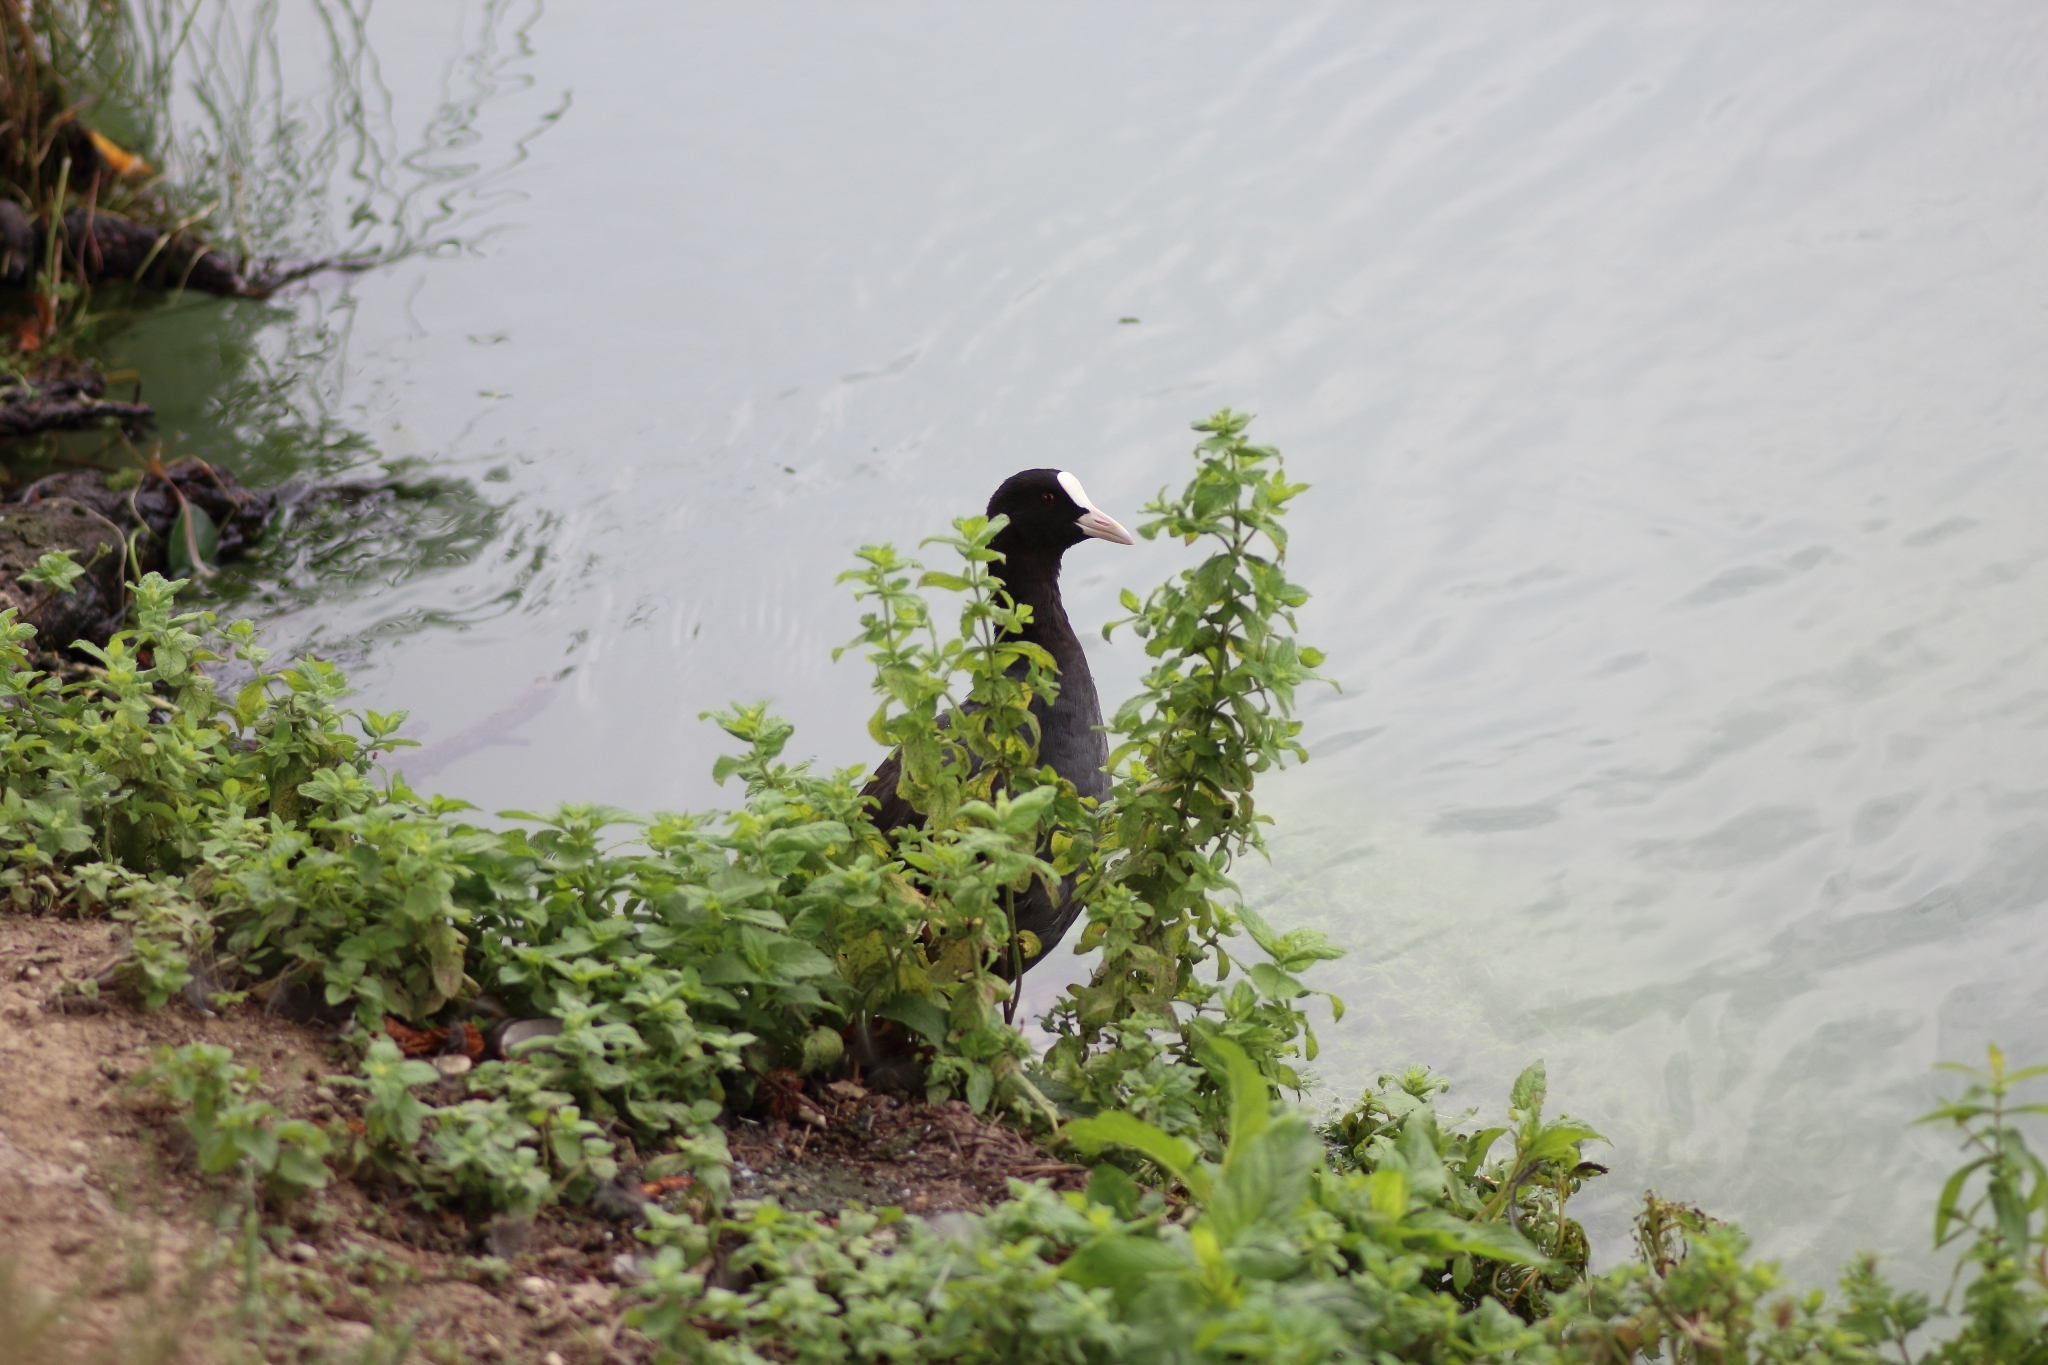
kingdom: Animalia
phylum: Chordata
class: Aves
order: Gruiformes
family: Rallidae
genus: Fulica
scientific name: Fulica atra
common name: Eurasian coot
